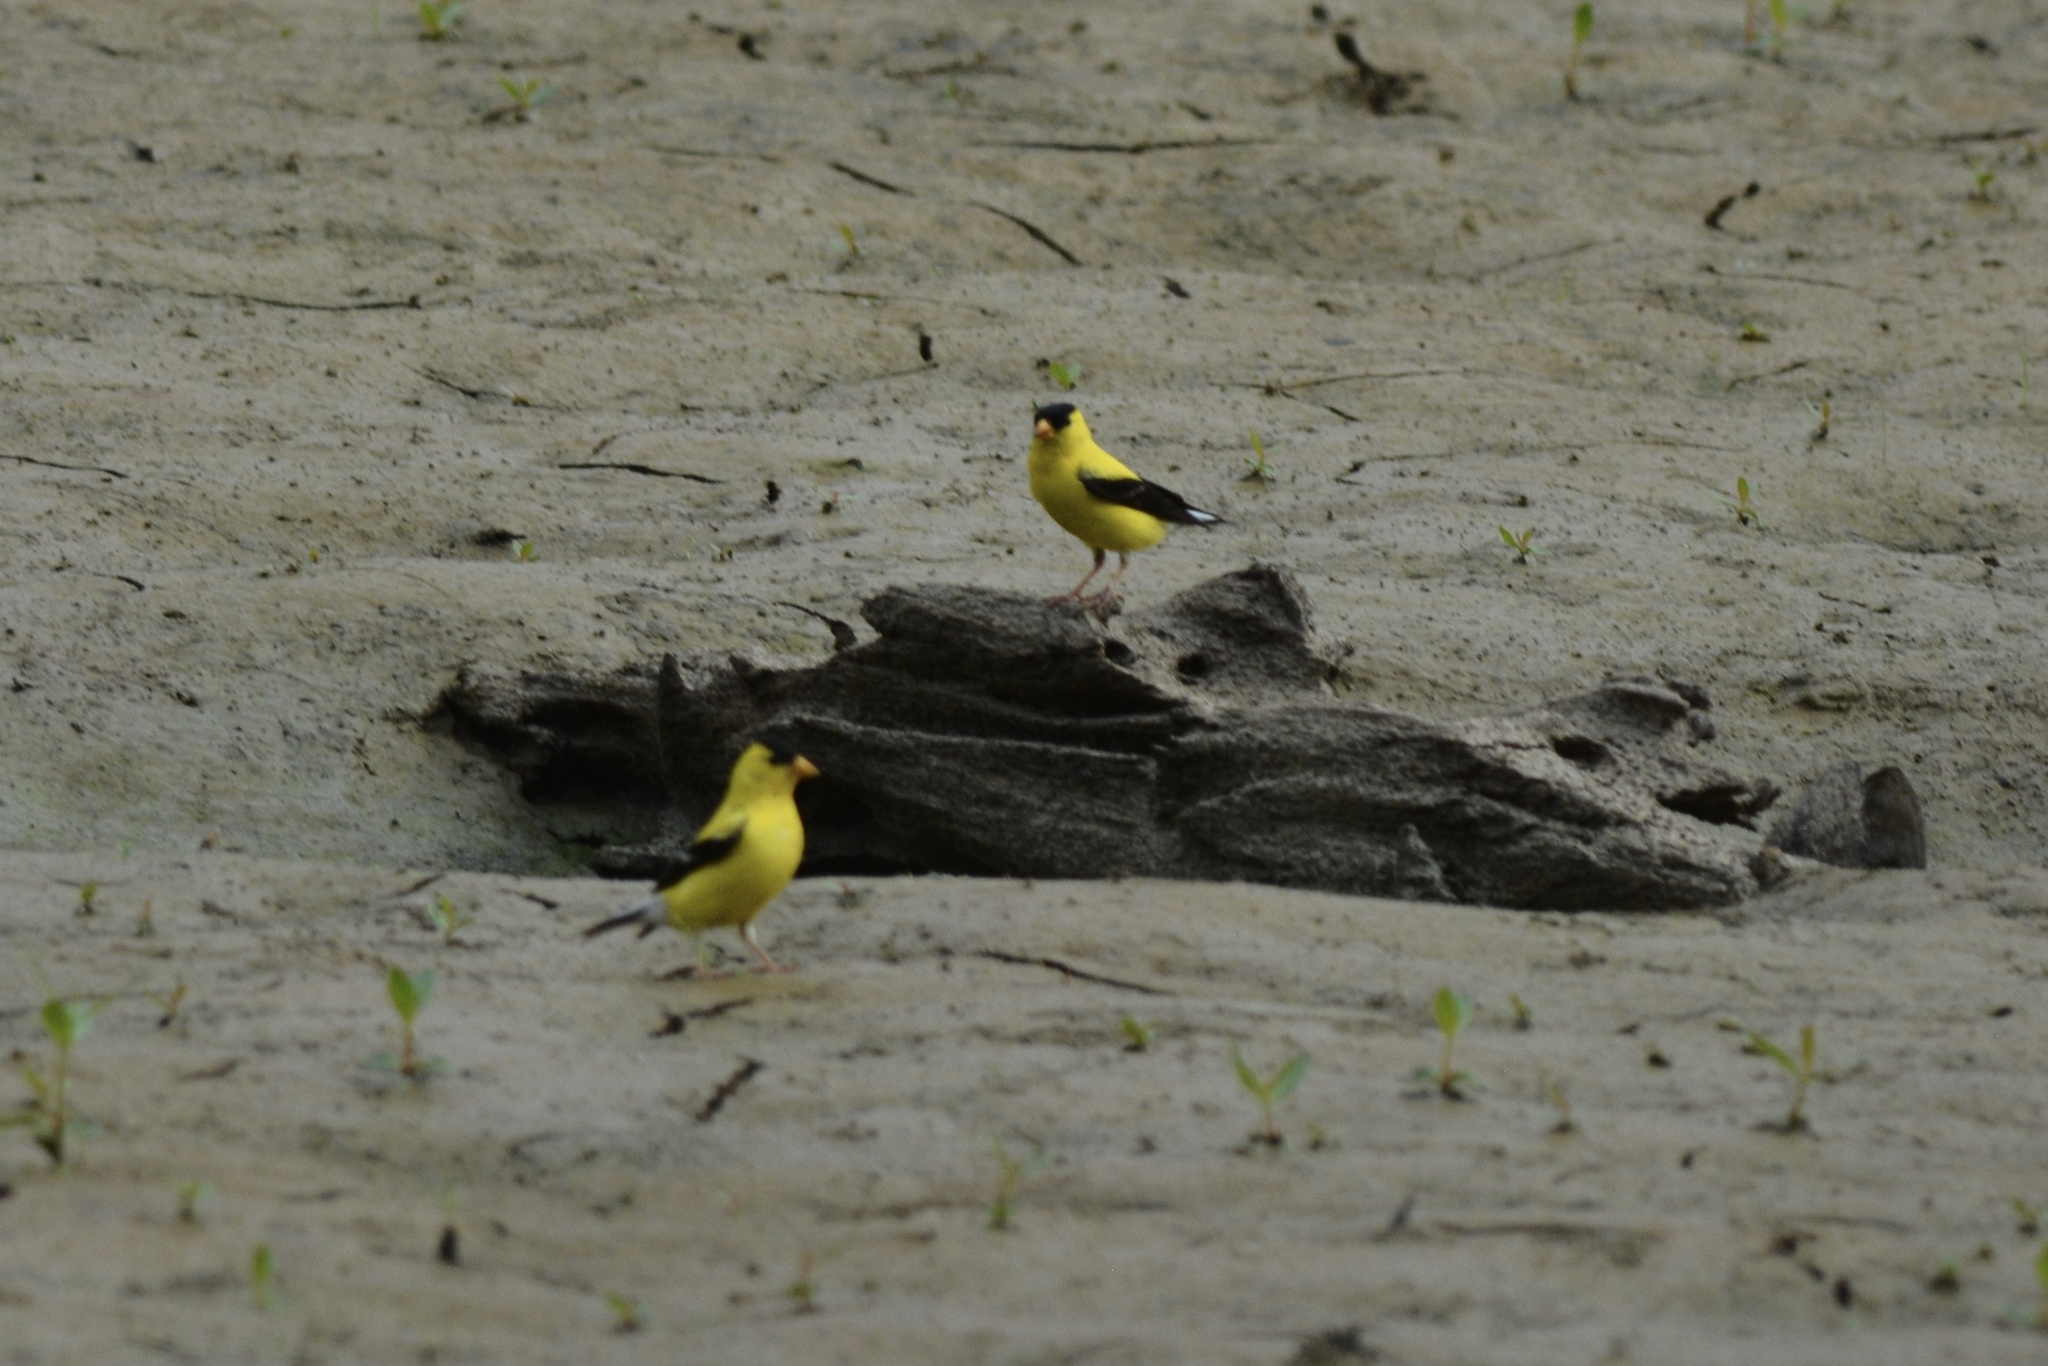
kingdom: Animalia
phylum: Chordata
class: Aves
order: Passeriformes
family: Fringillidae
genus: Spinus
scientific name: Spinus tristis
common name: American goldfinch
